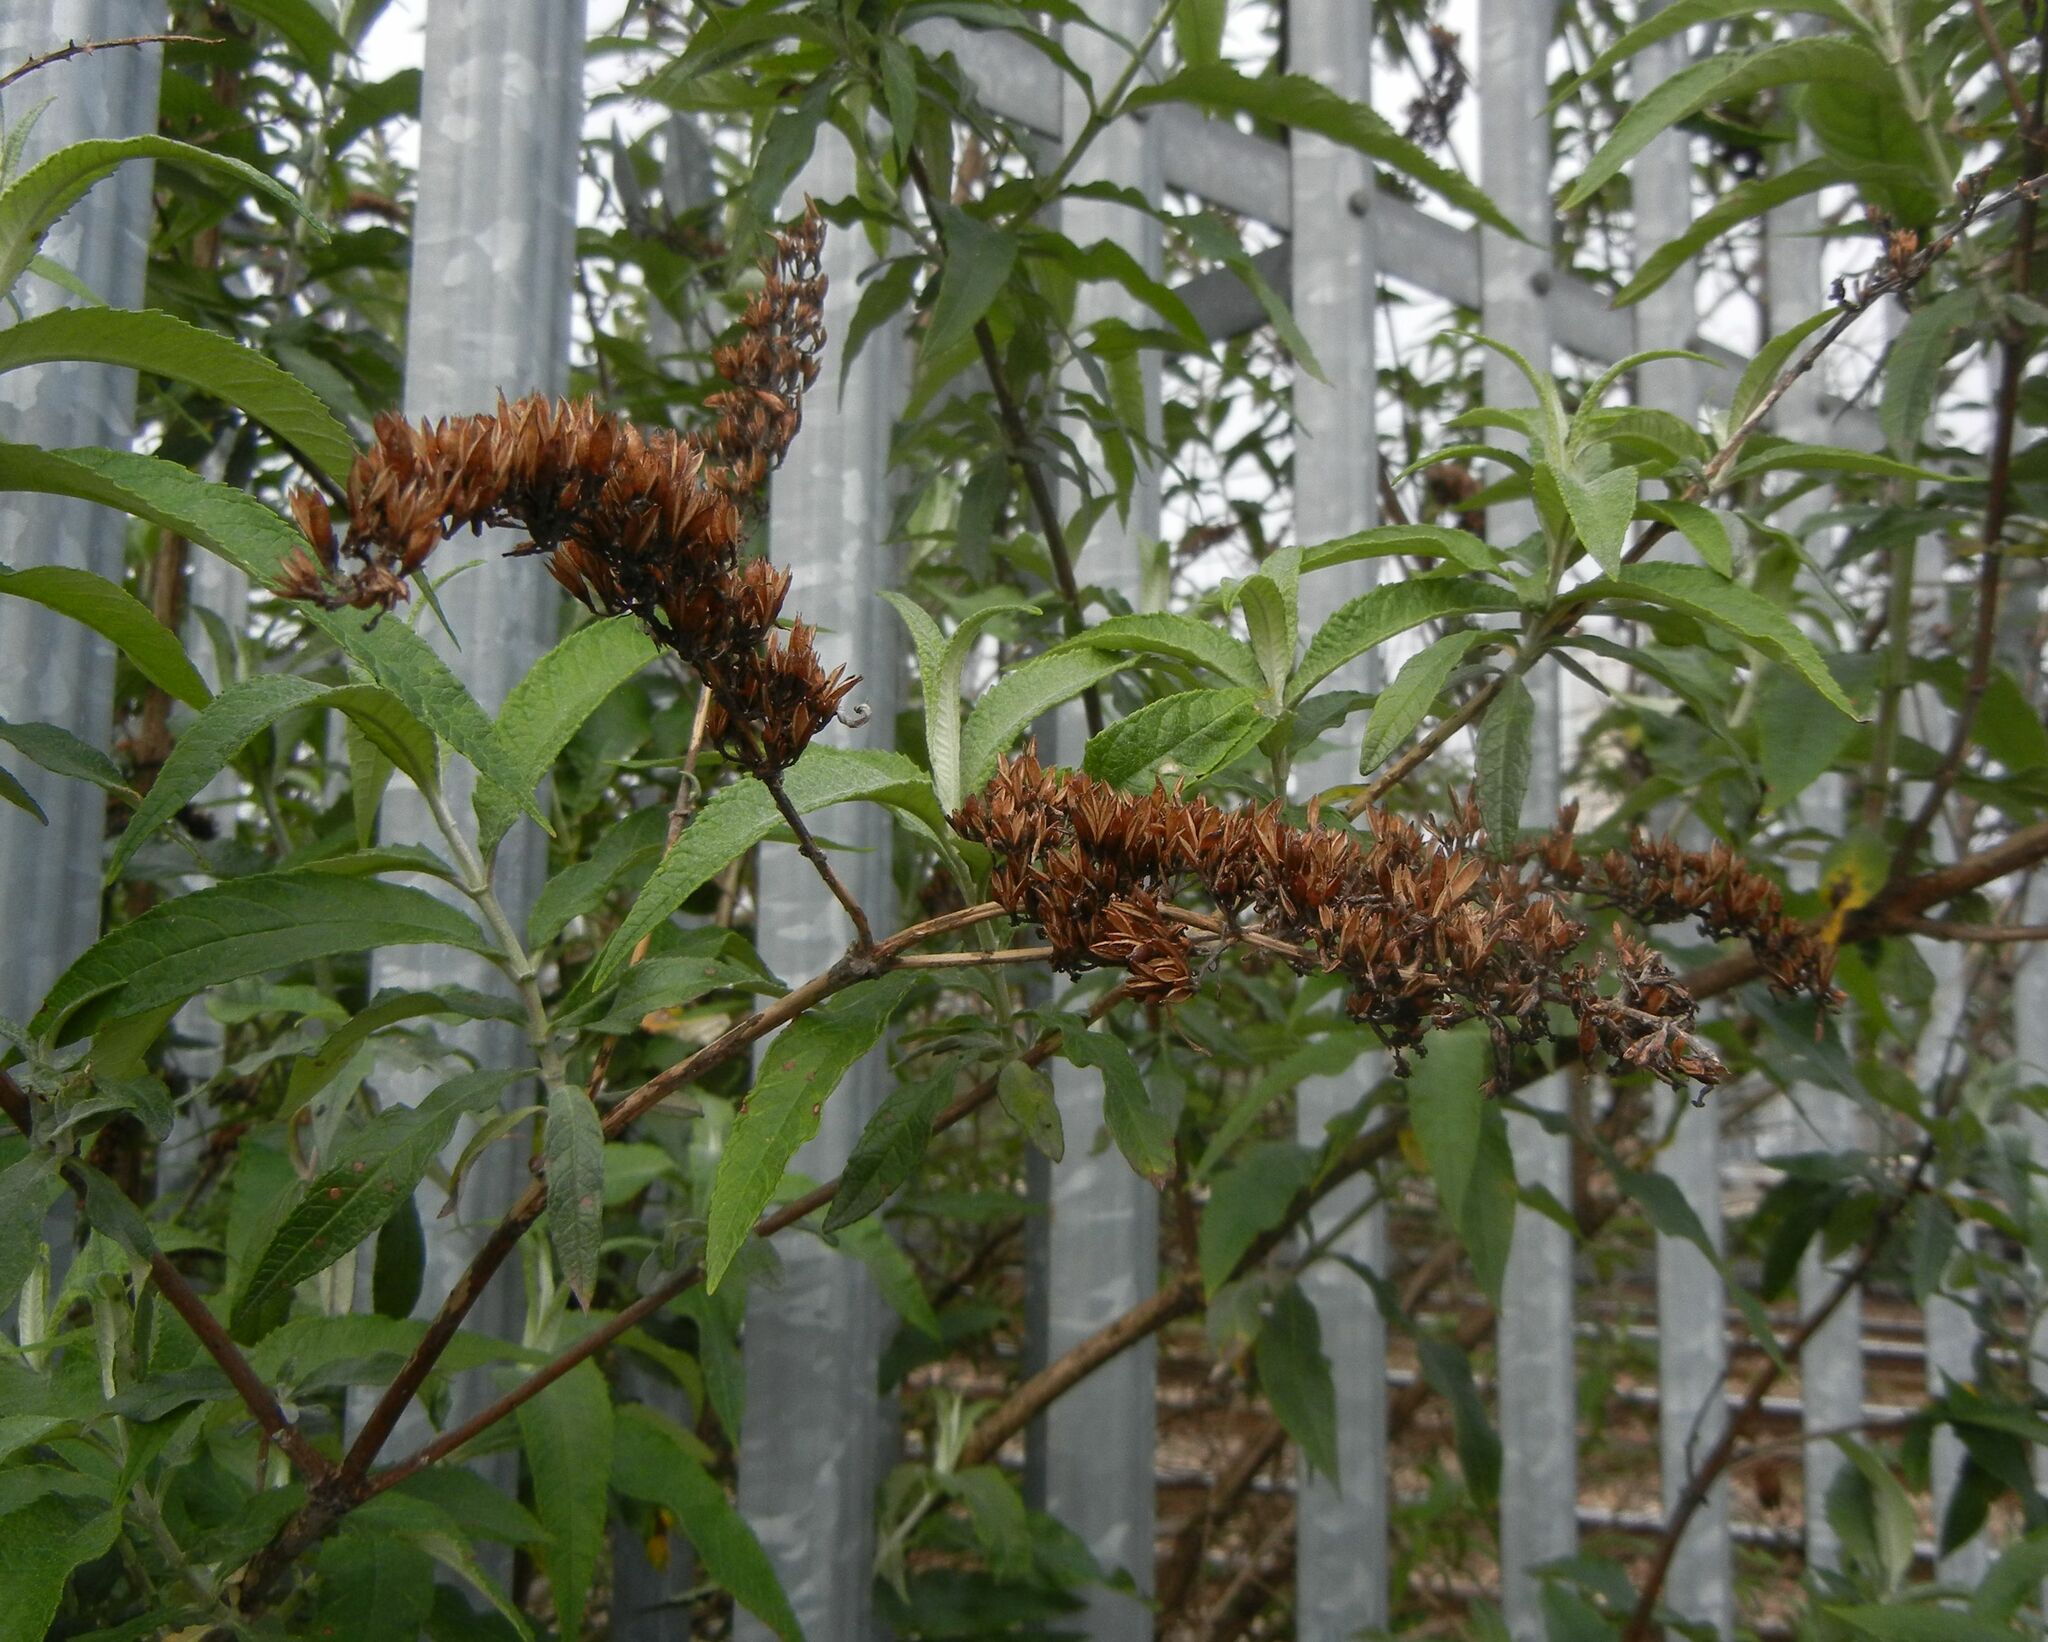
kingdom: Plantae
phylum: Tracheophyta
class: Magnoliopsida
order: Lamiales
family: Scrophulariaceae
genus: Buddleja
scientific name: Buddleja davidii
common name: Butterfly-bush
